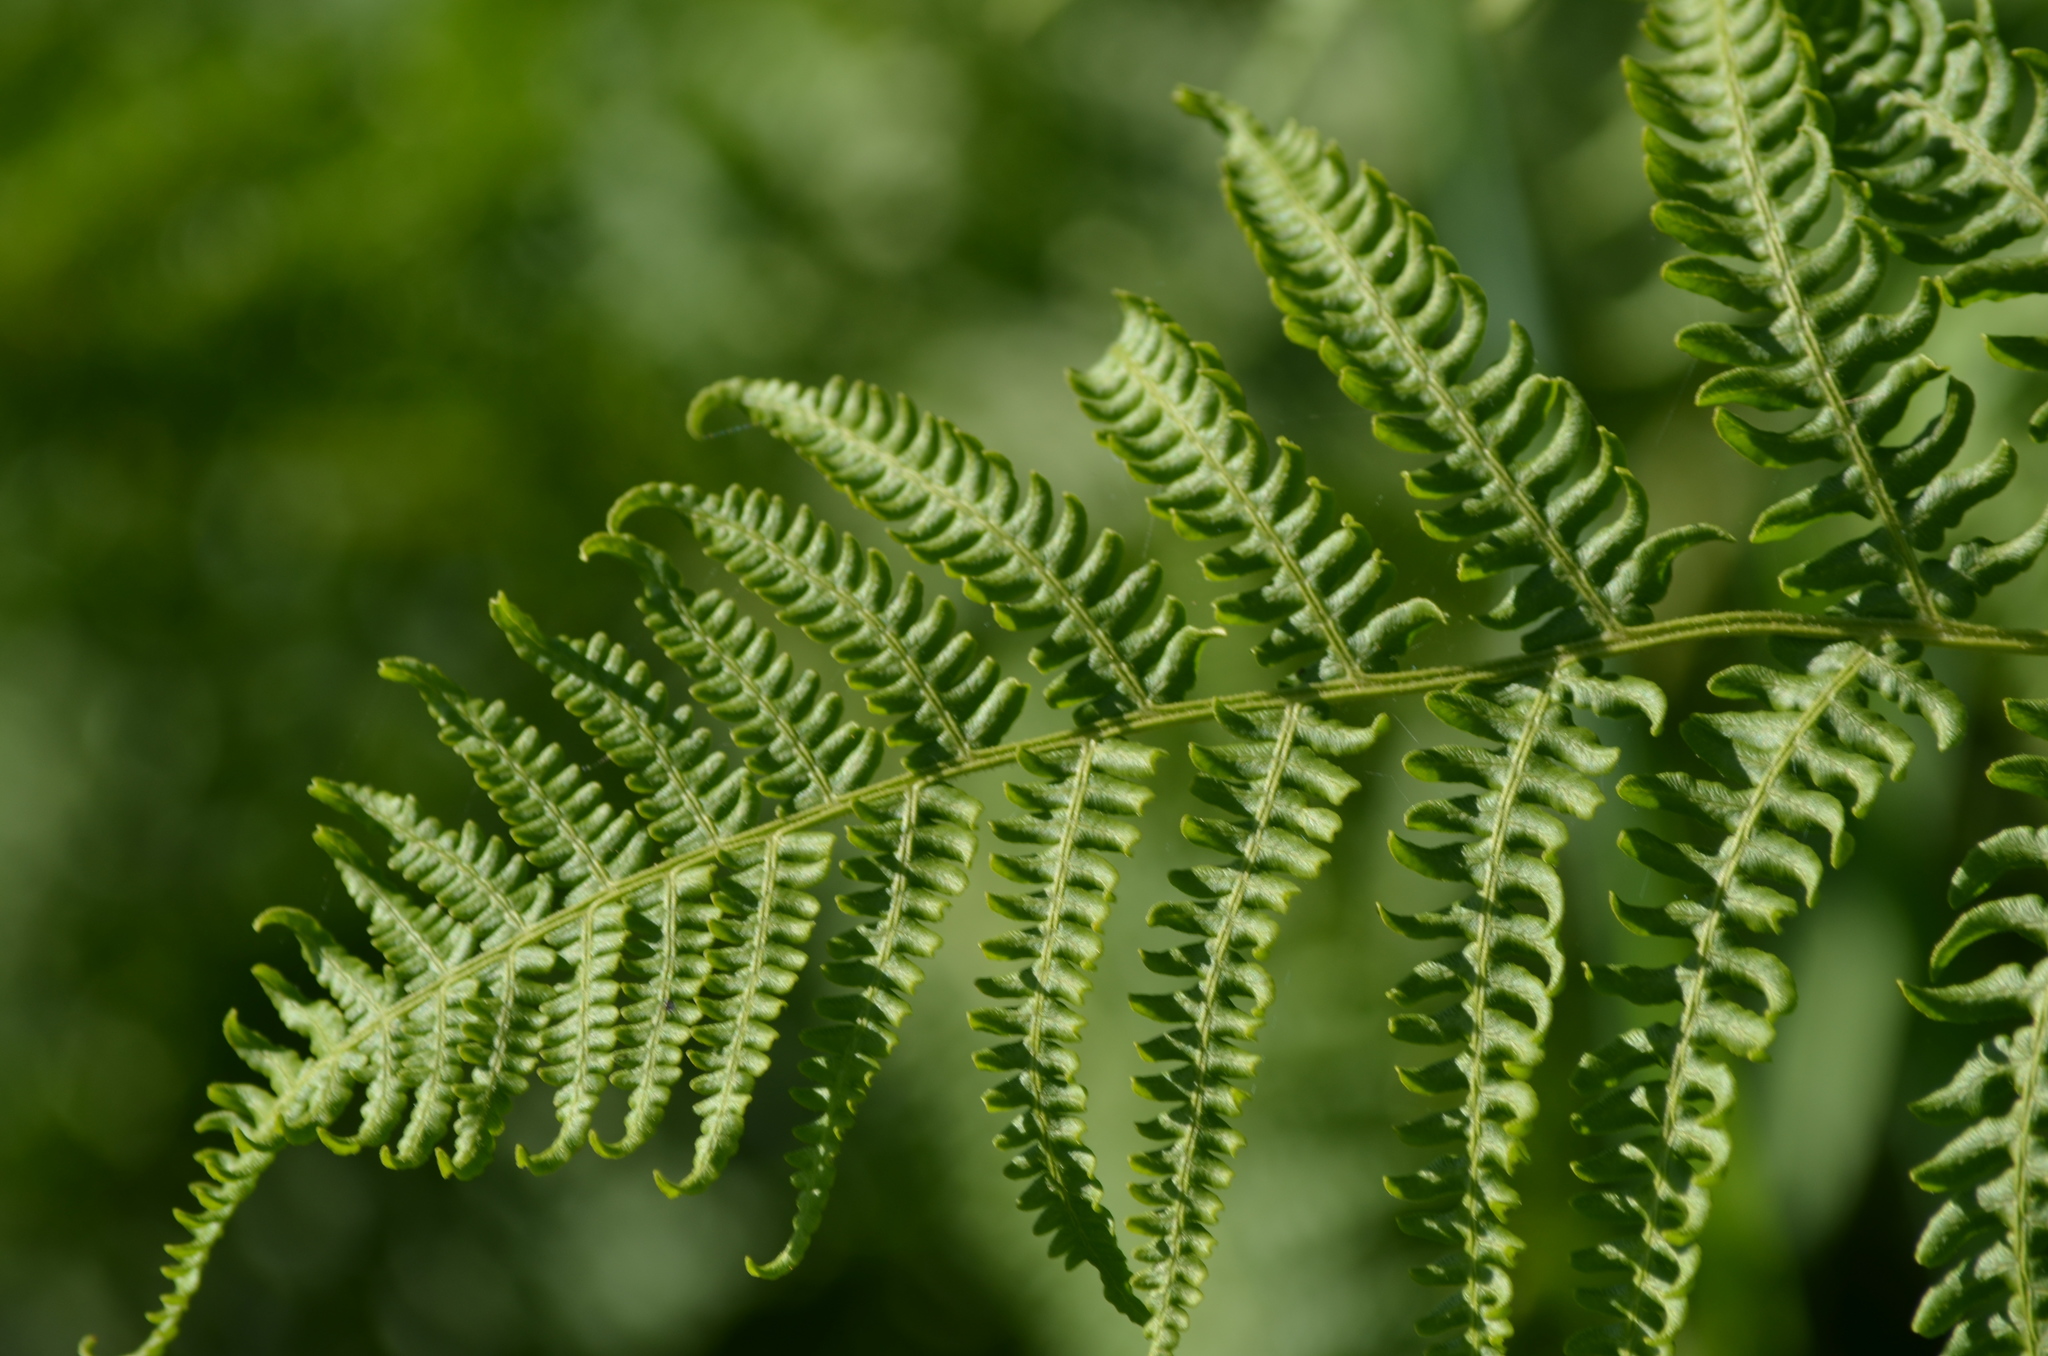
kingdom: Plantae
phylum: Tracheophyta
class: Polypodiopsida
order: Polypodiales
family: Dennstaedtiaceae
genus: Pteridium
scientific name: Pteridium aquilinum
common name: Bracken
